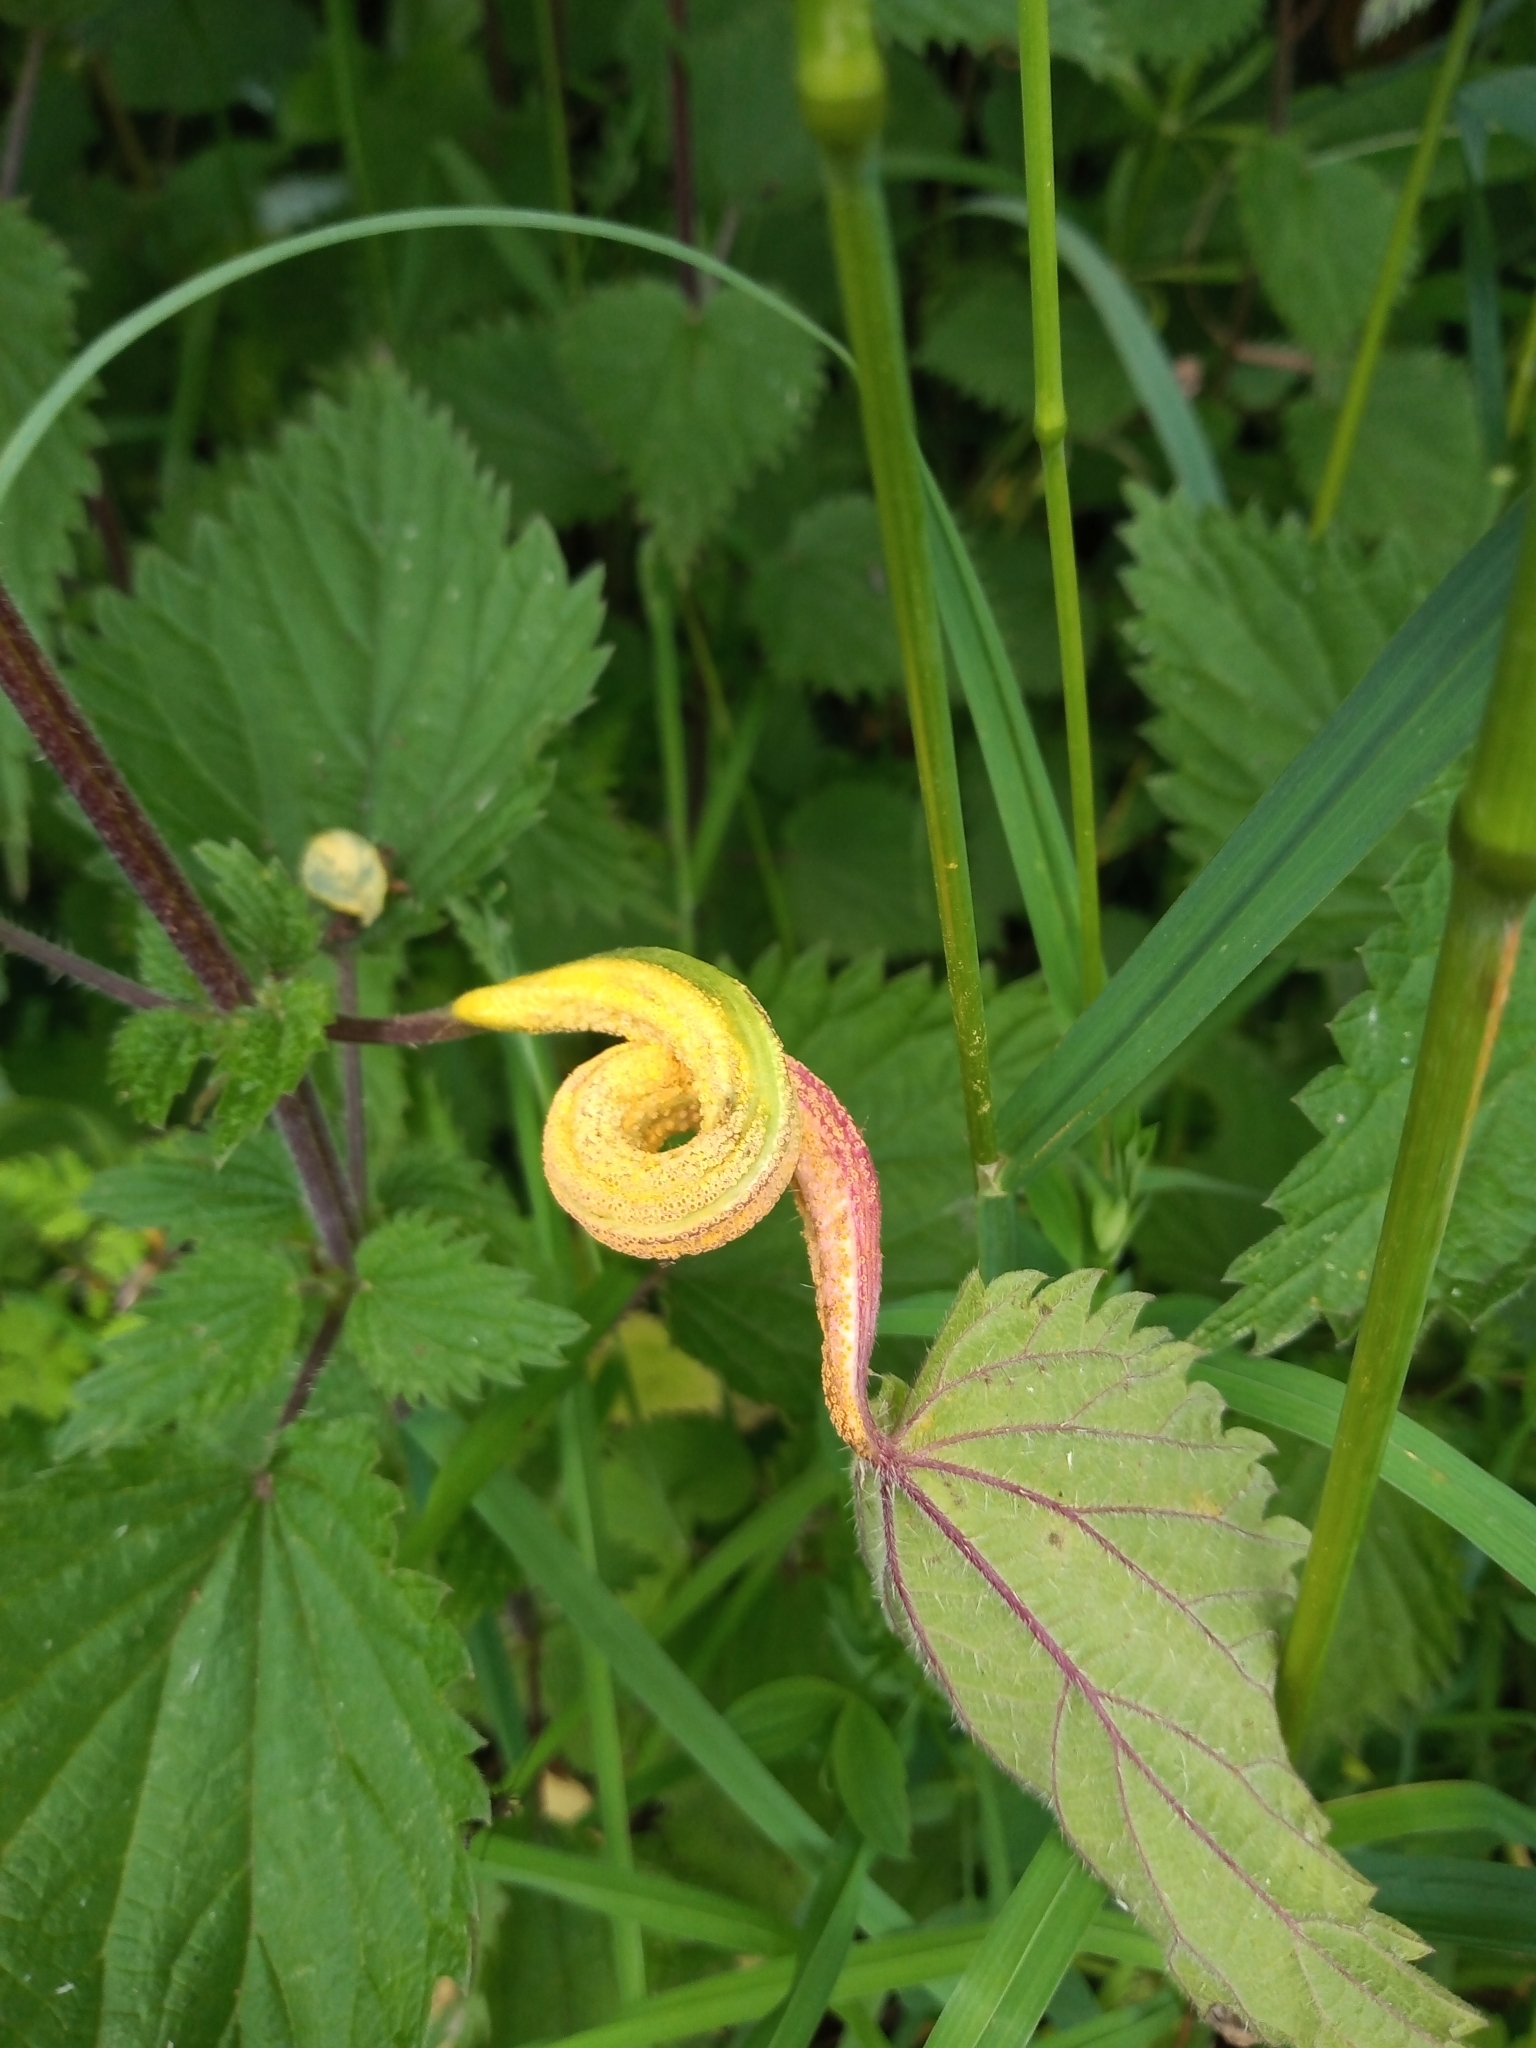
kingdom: Fungi
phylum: Basidiomycota
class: Pucciniomycetes
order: Pucciniales
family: Pucciniaceae
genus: Puccinia
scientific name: Puccinia urticata
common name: Nettle clustercup rust fungus
